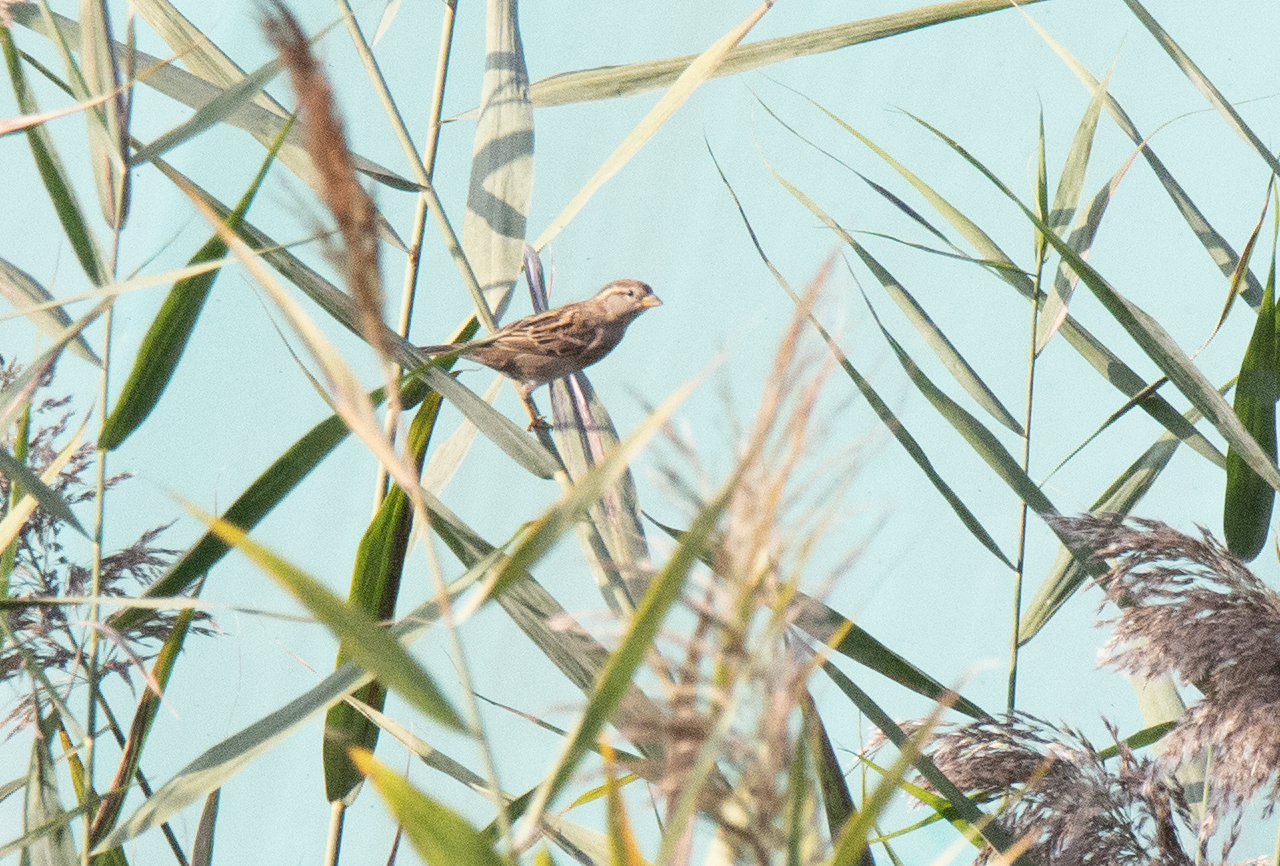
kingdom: Animalia
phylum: Chordata
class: Aves
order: Passeriformes
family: Passeridae
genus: Passer
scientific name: Passer italiae
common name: Italian sparrow
